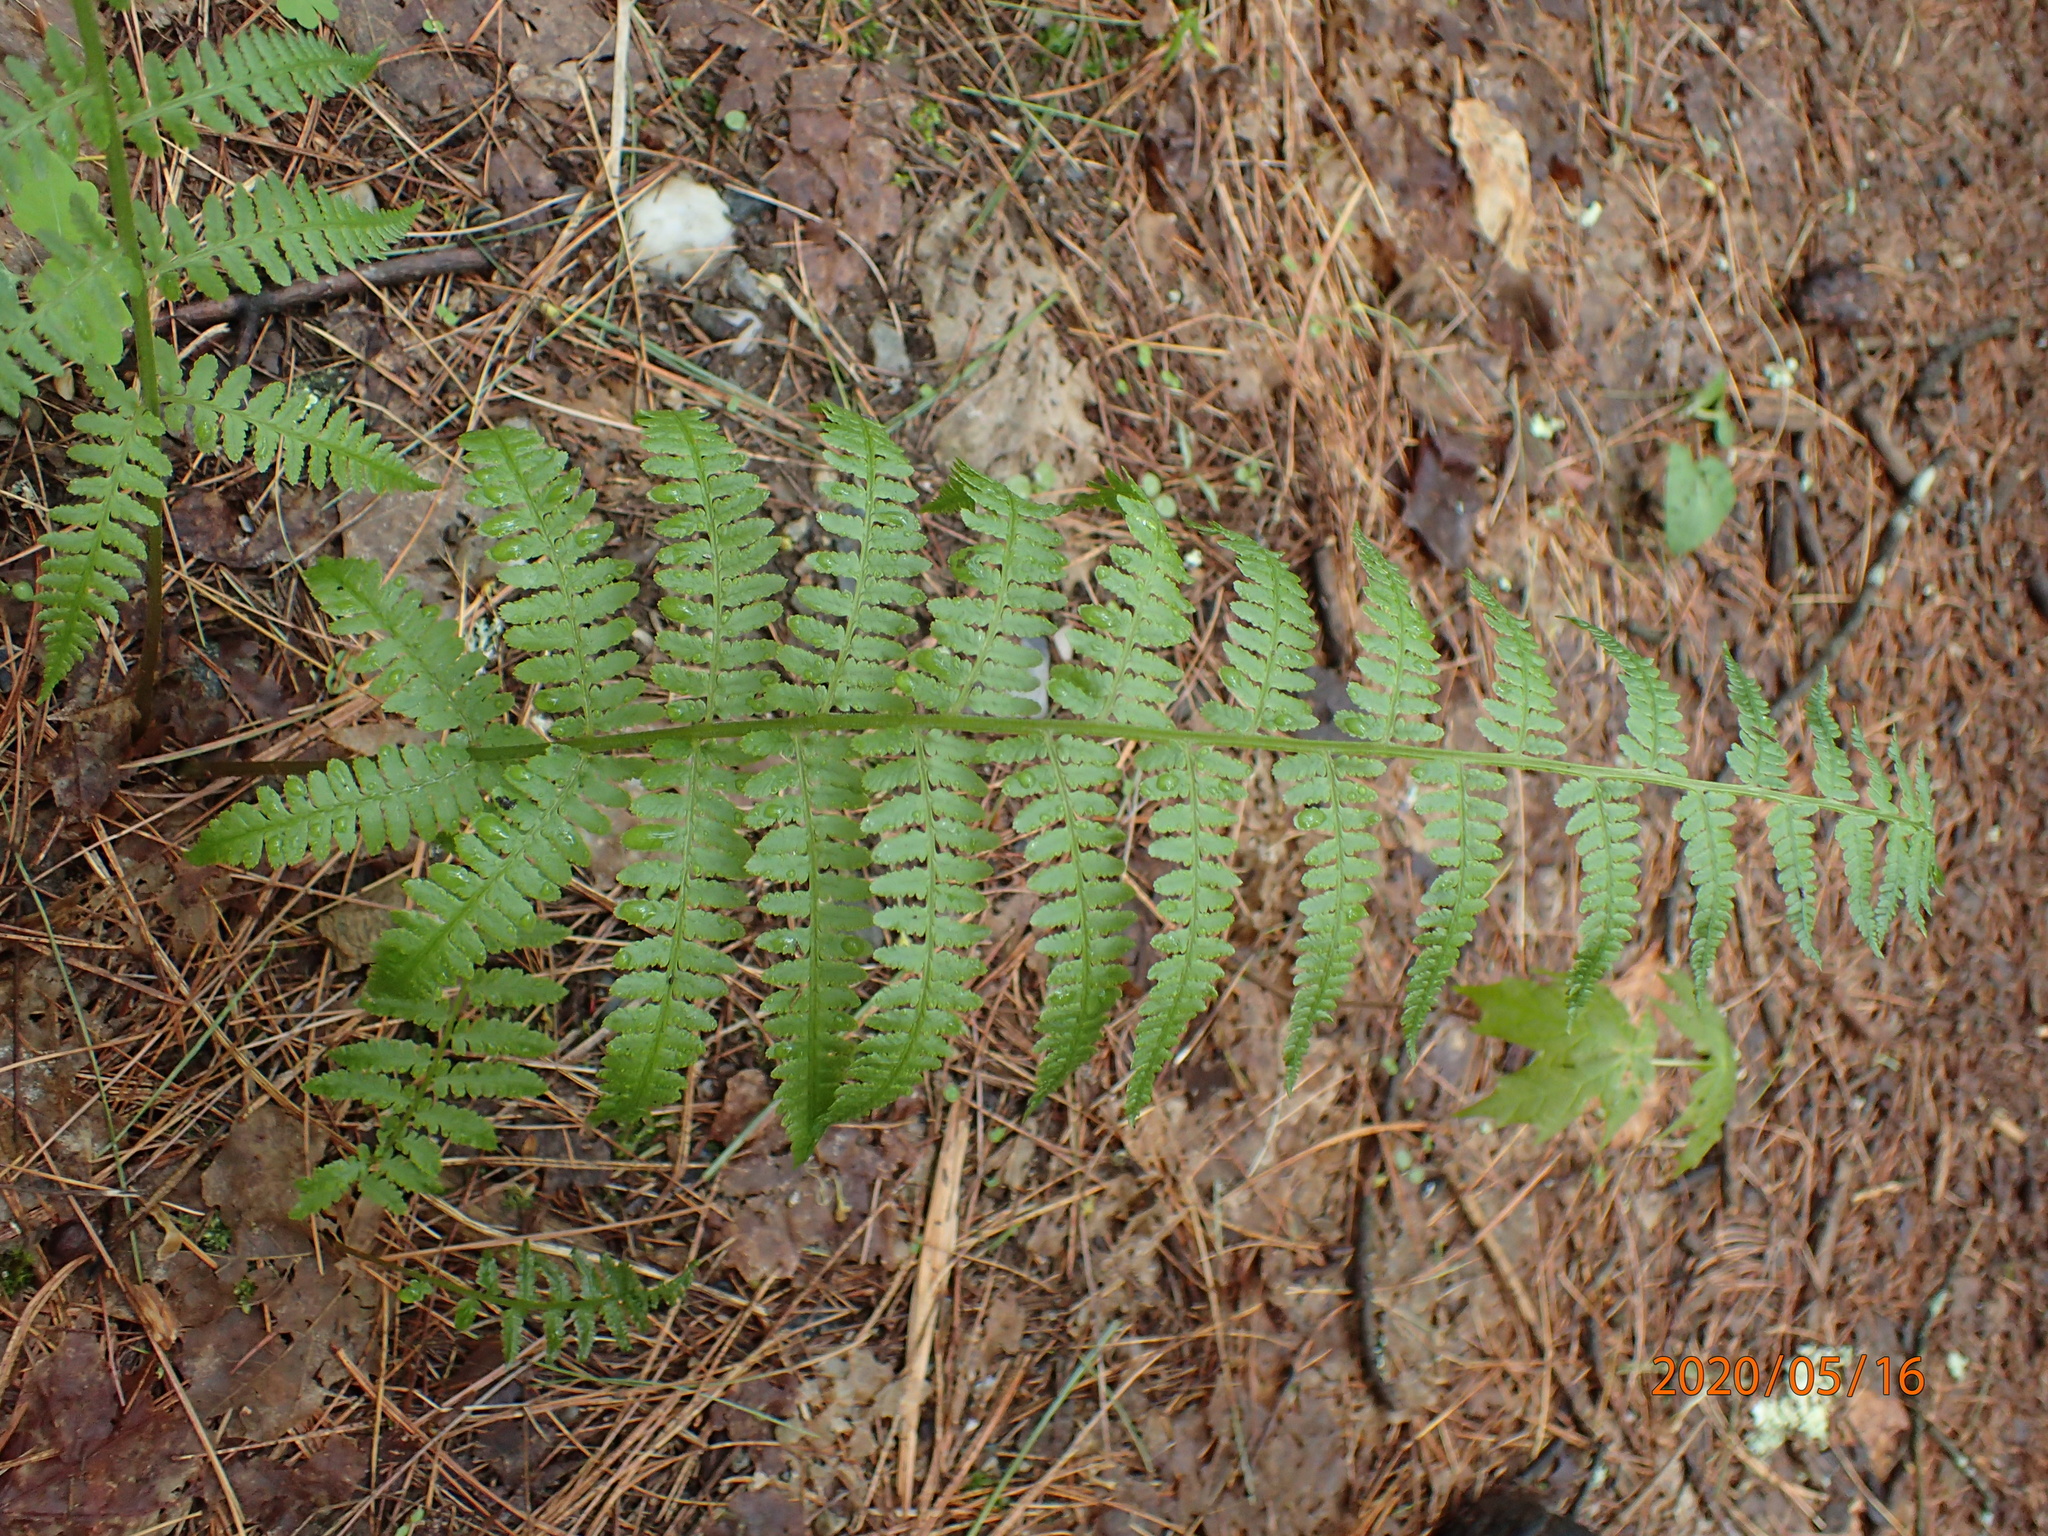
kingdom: Plantae
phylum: Tracheophyta
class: Polypodiopsida
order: Polypodiales
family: Athyriaceae
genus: Athyrium
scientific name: Athyrium angustum
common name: Northern lady fern
